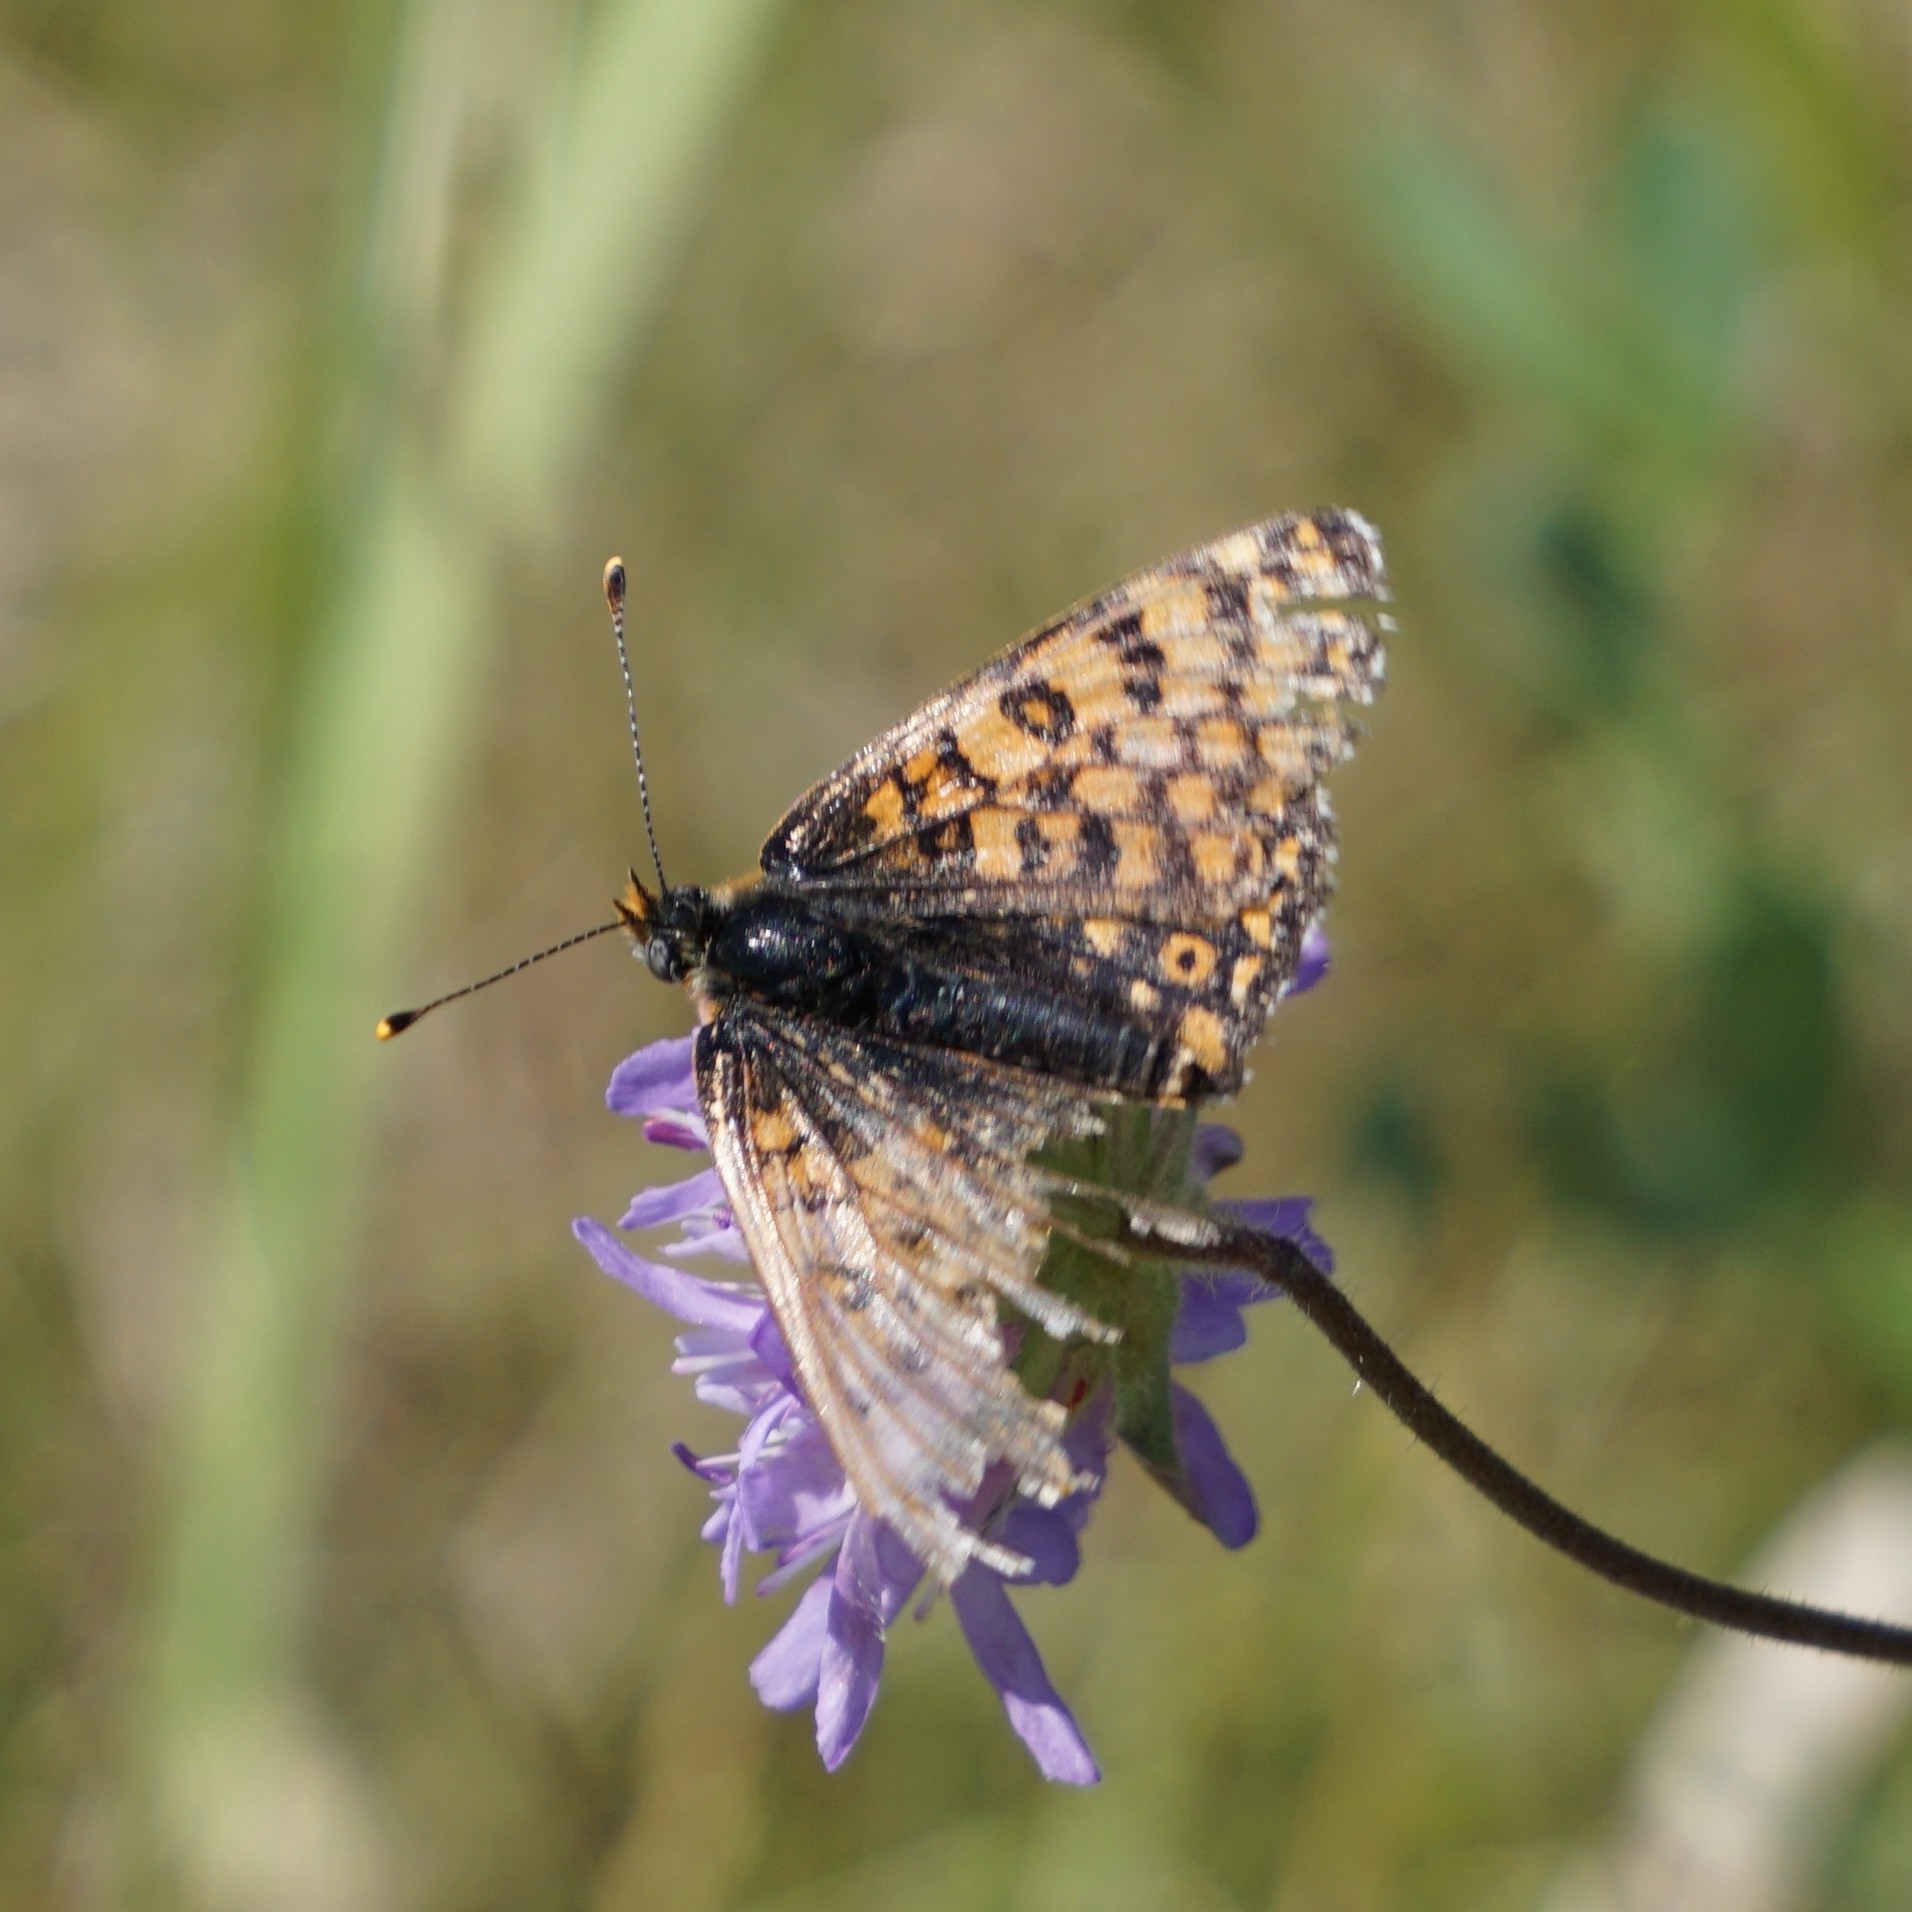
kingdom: Animalia
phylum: Arthropoda
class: Insecta
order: Lepidoptera
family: Nymphalidae
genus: Melitaea
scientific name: Melitaea cinxia
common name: Glanville fritillary
